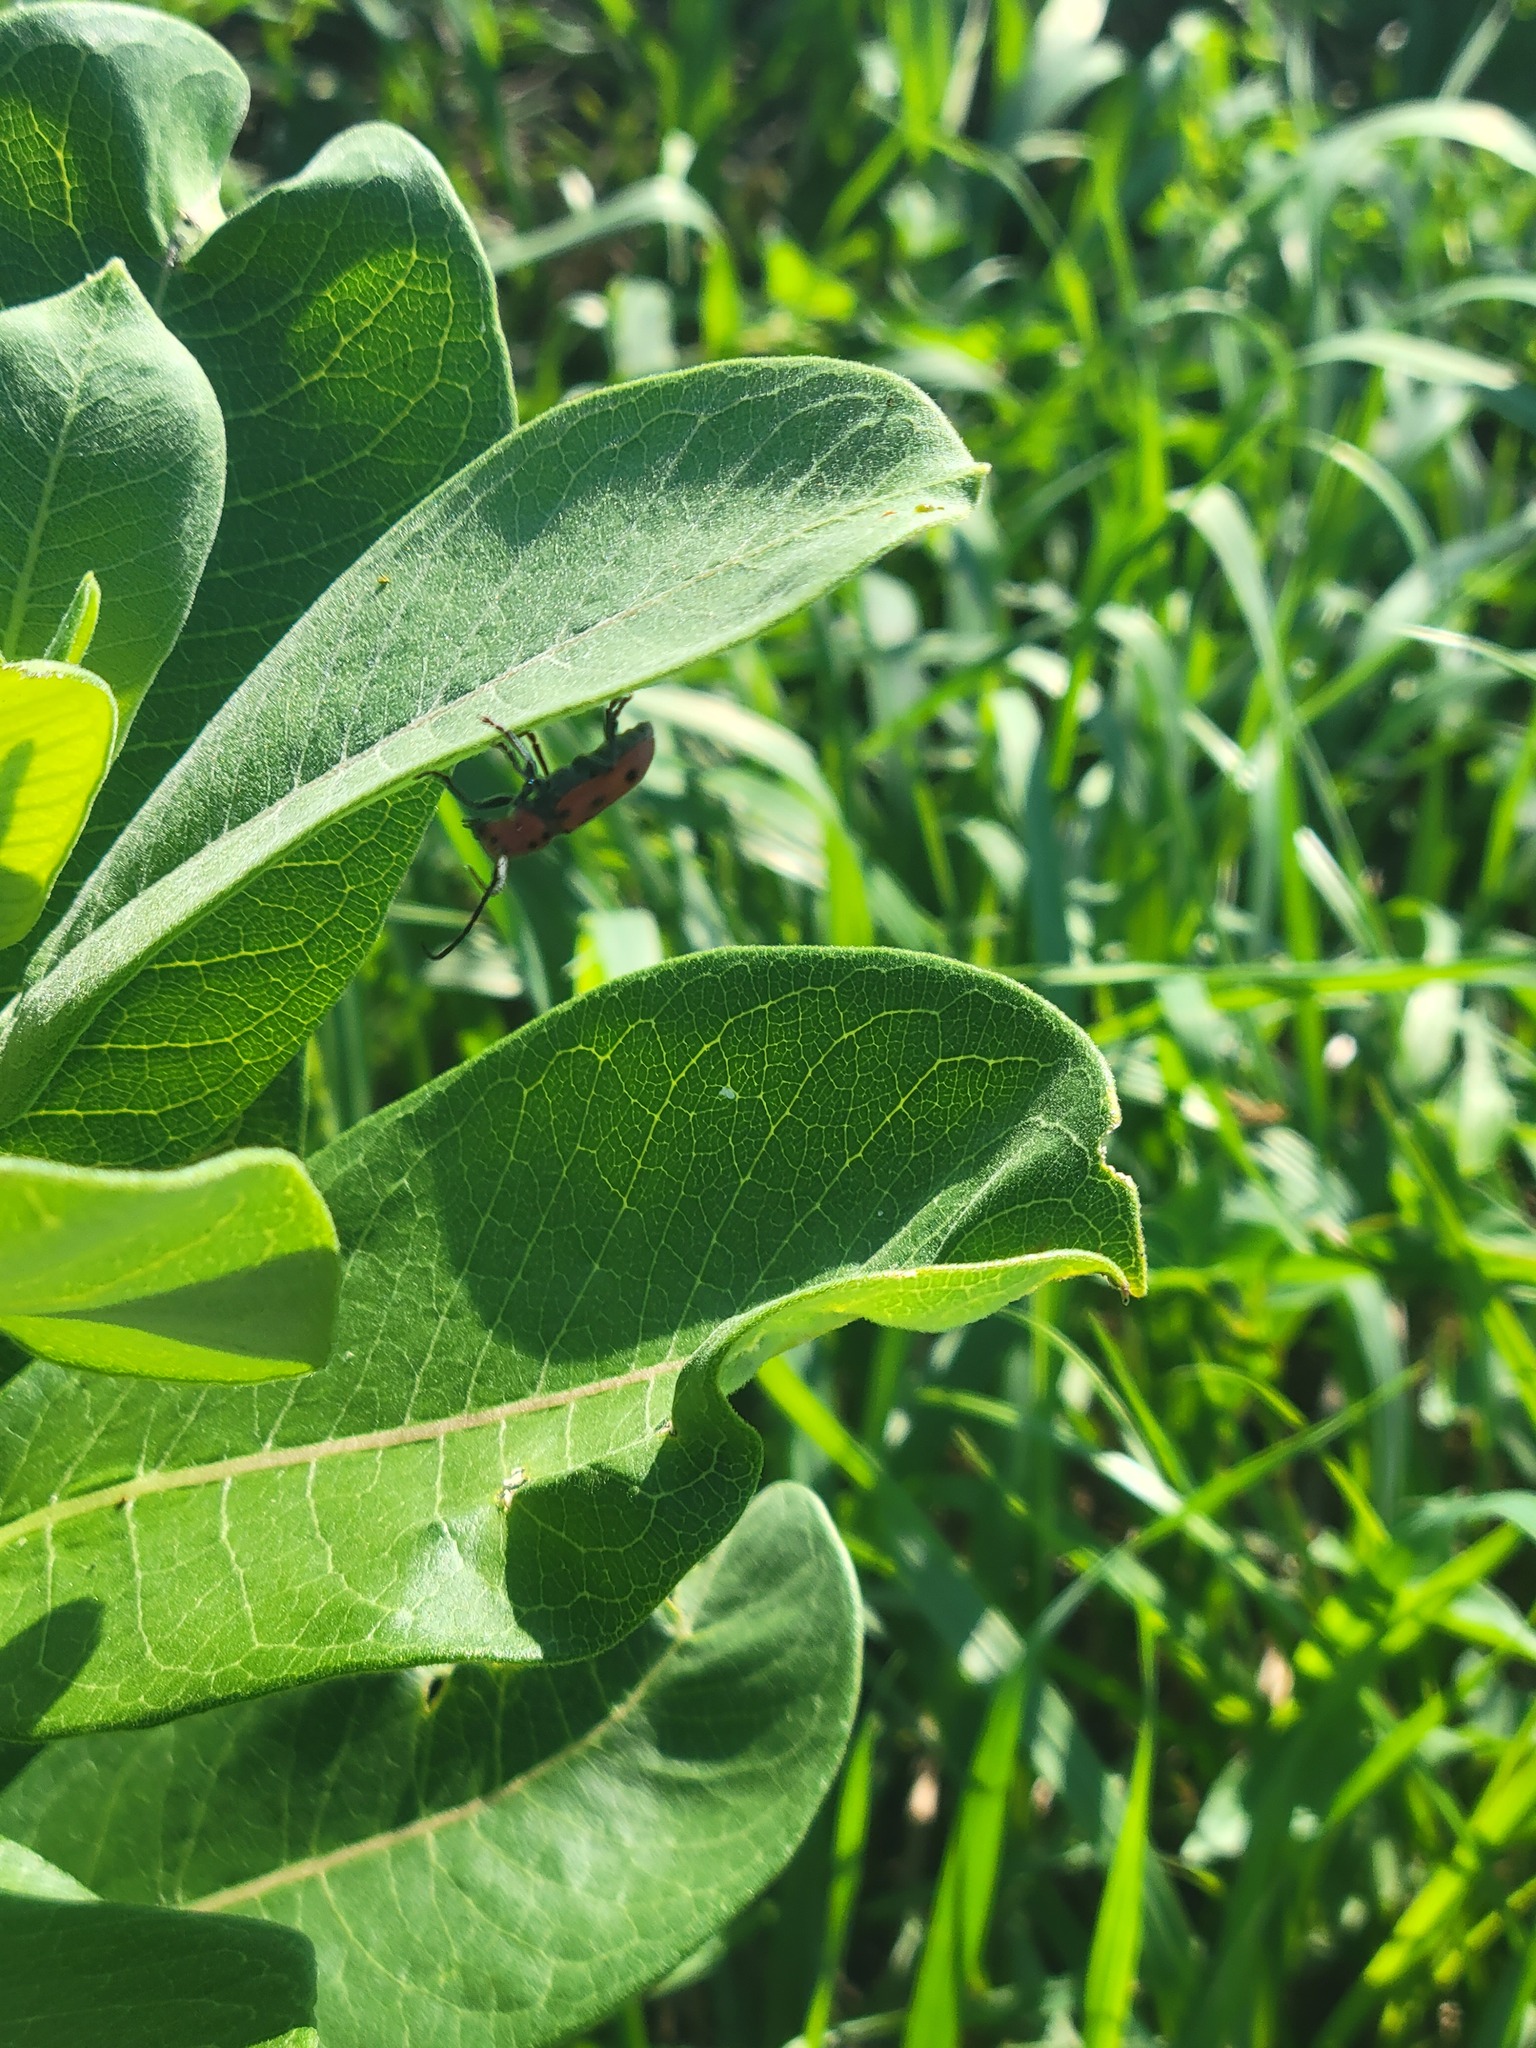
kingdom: Animalia
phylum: Arthropoda
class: Insecta
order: Coleoptera
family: Cerambycidae
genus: Tetraopes
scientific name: Tetraopes tetrophthalmus
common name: Red milkweed beetle
